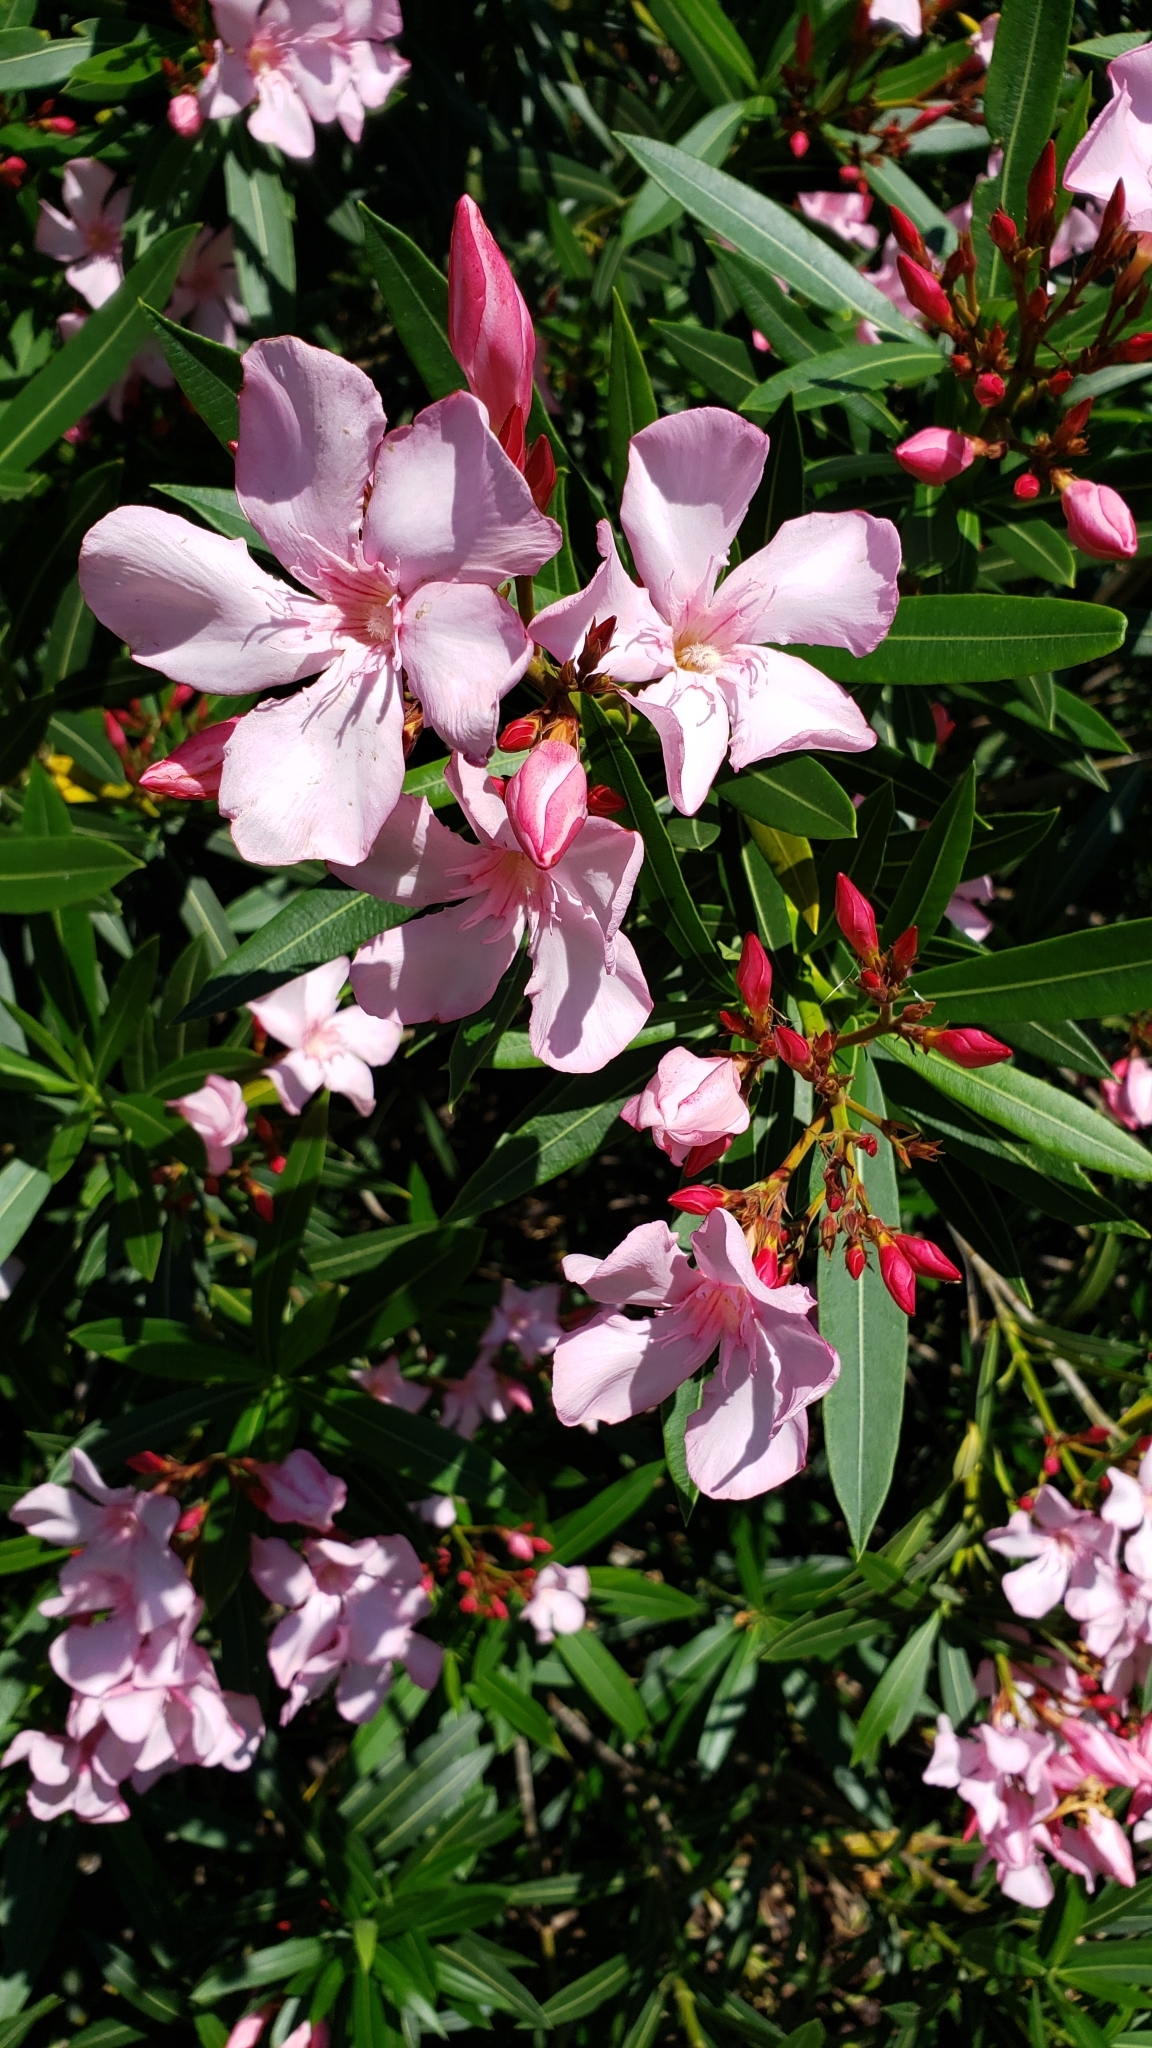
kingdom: Plantae
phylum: Tracheophyta
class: Magnoliopsida
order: Gentianales
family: Apocynaceae
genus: Nerium
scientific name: Nerium oleander
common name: Oleander
